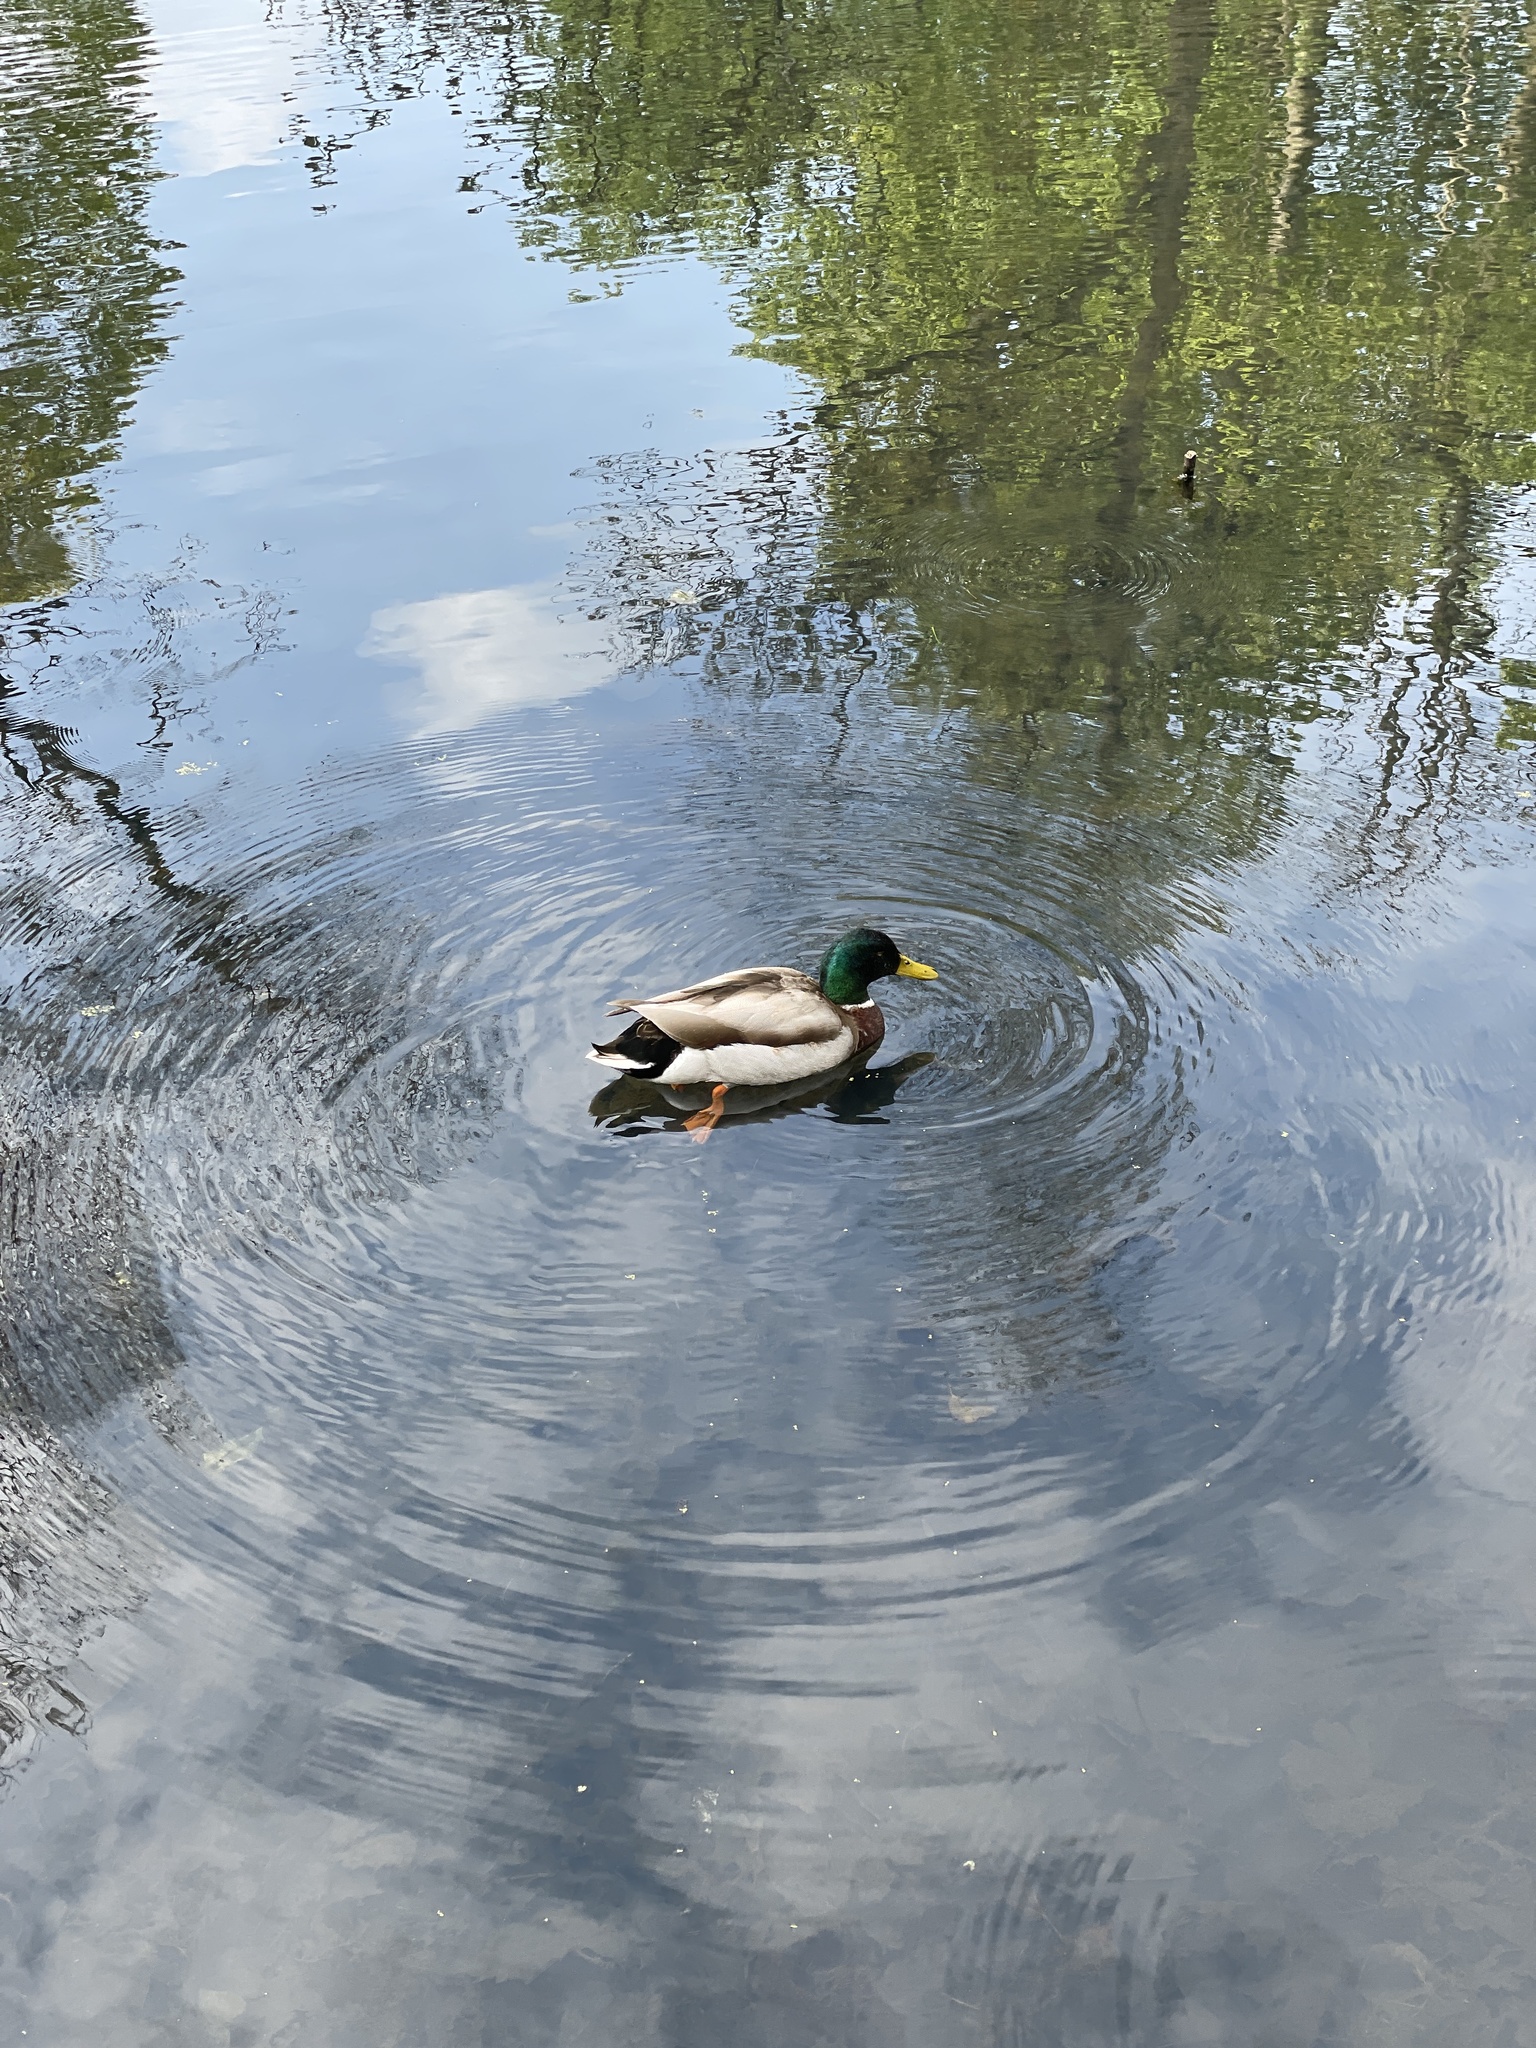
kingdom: Animalia
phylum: Chordata
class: Aves
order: Anseriformes
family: Anatidae
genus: Anas
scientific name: Anas platyrhynchos
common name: Mallard
